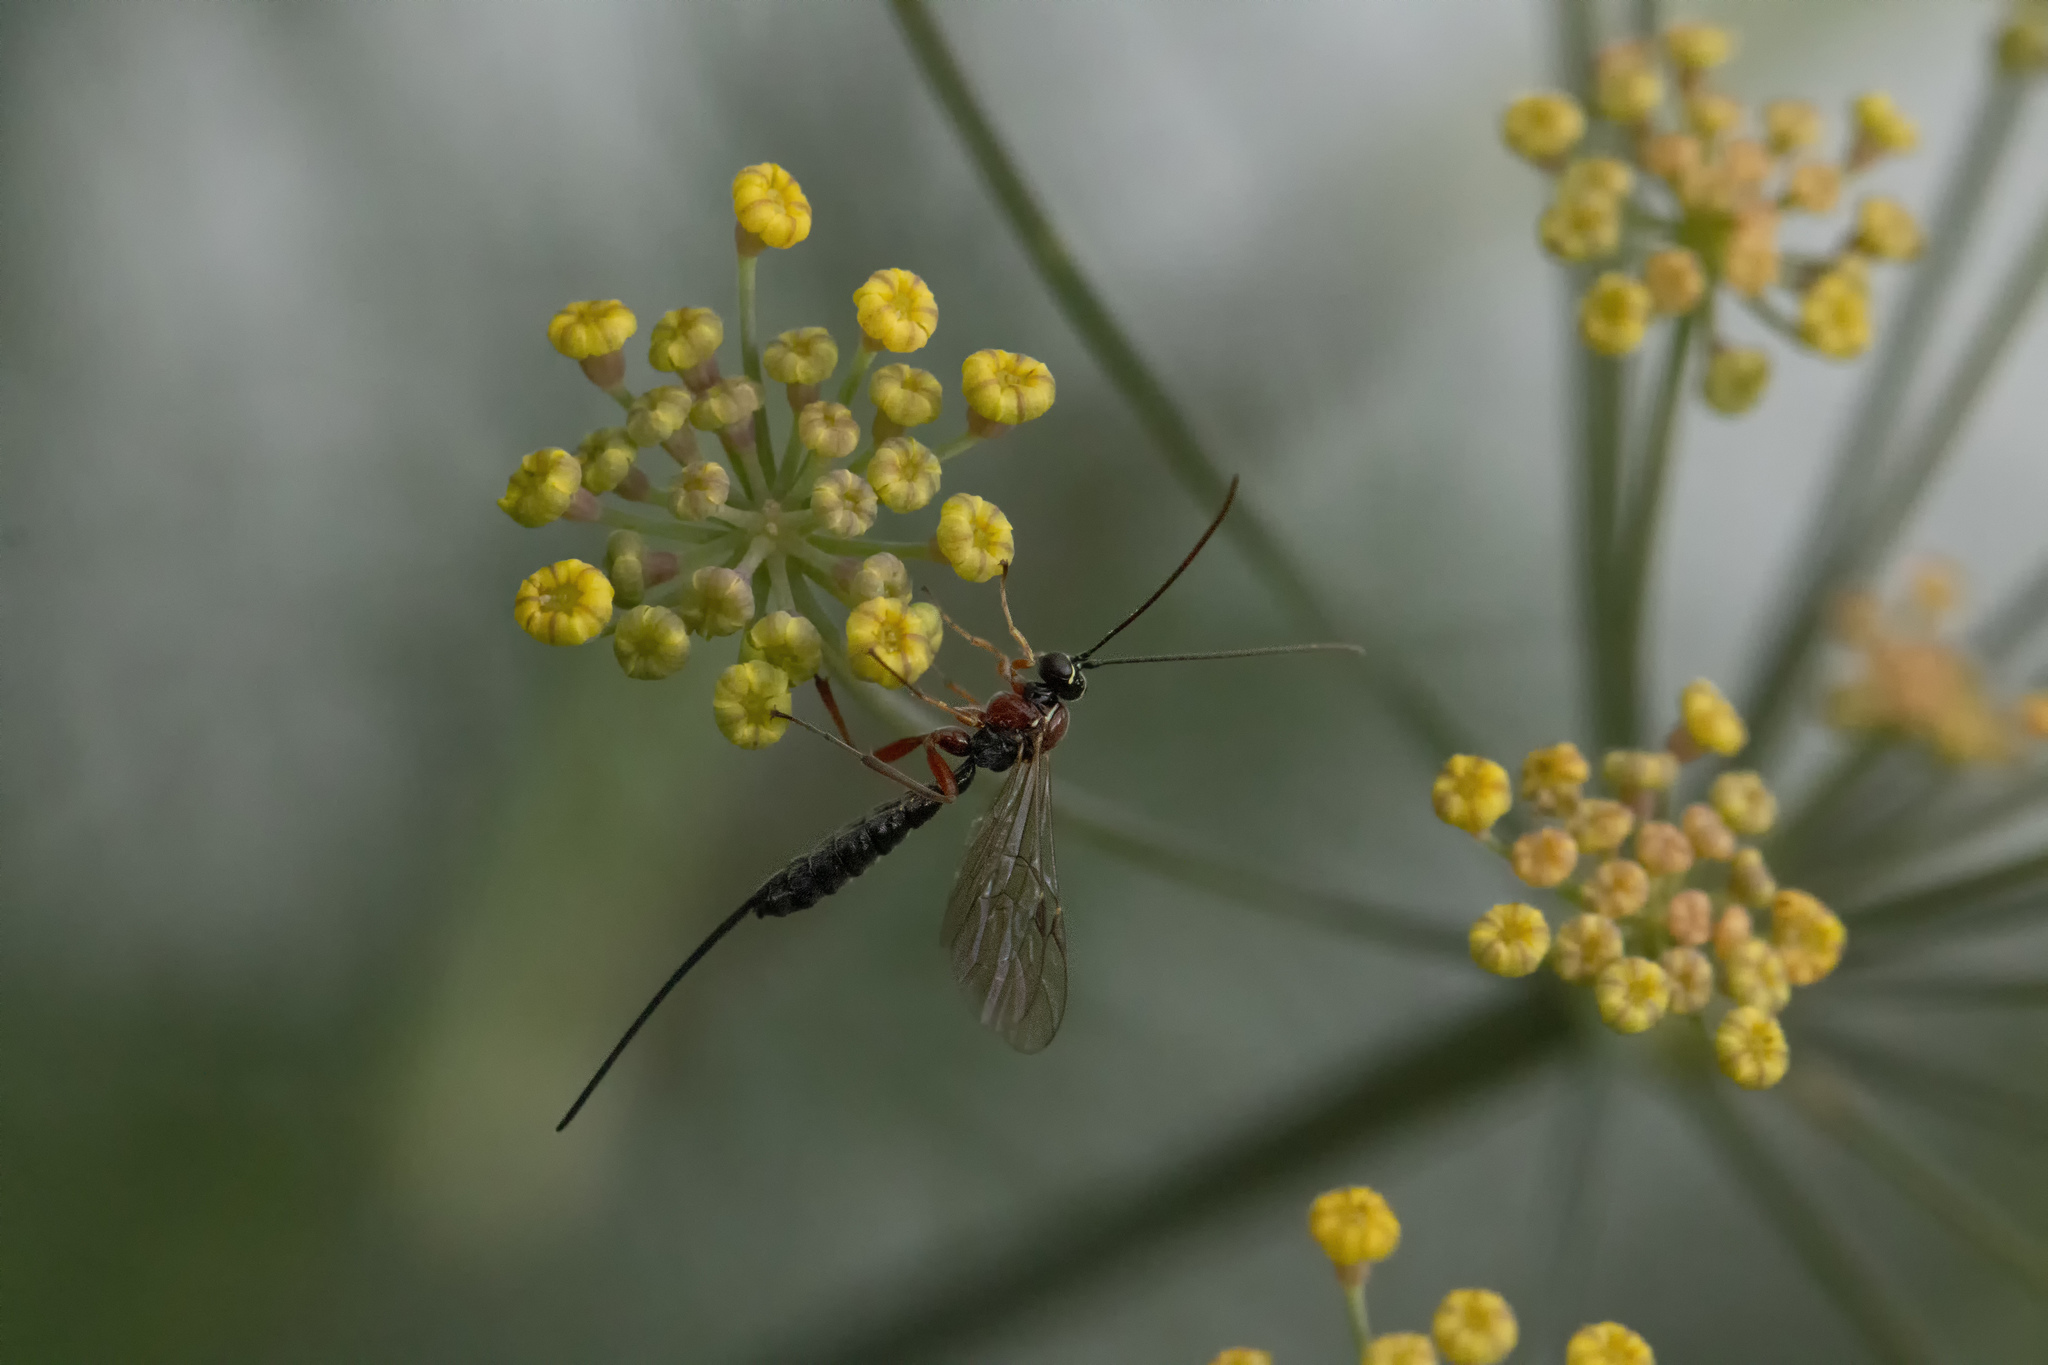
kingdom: Animalia
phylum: Arthropoda
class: Insecta
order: Hymenoptera
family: Ichneumonidae
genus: Perithous
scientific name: Perithous divinator
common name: Ichneumonid wasp
